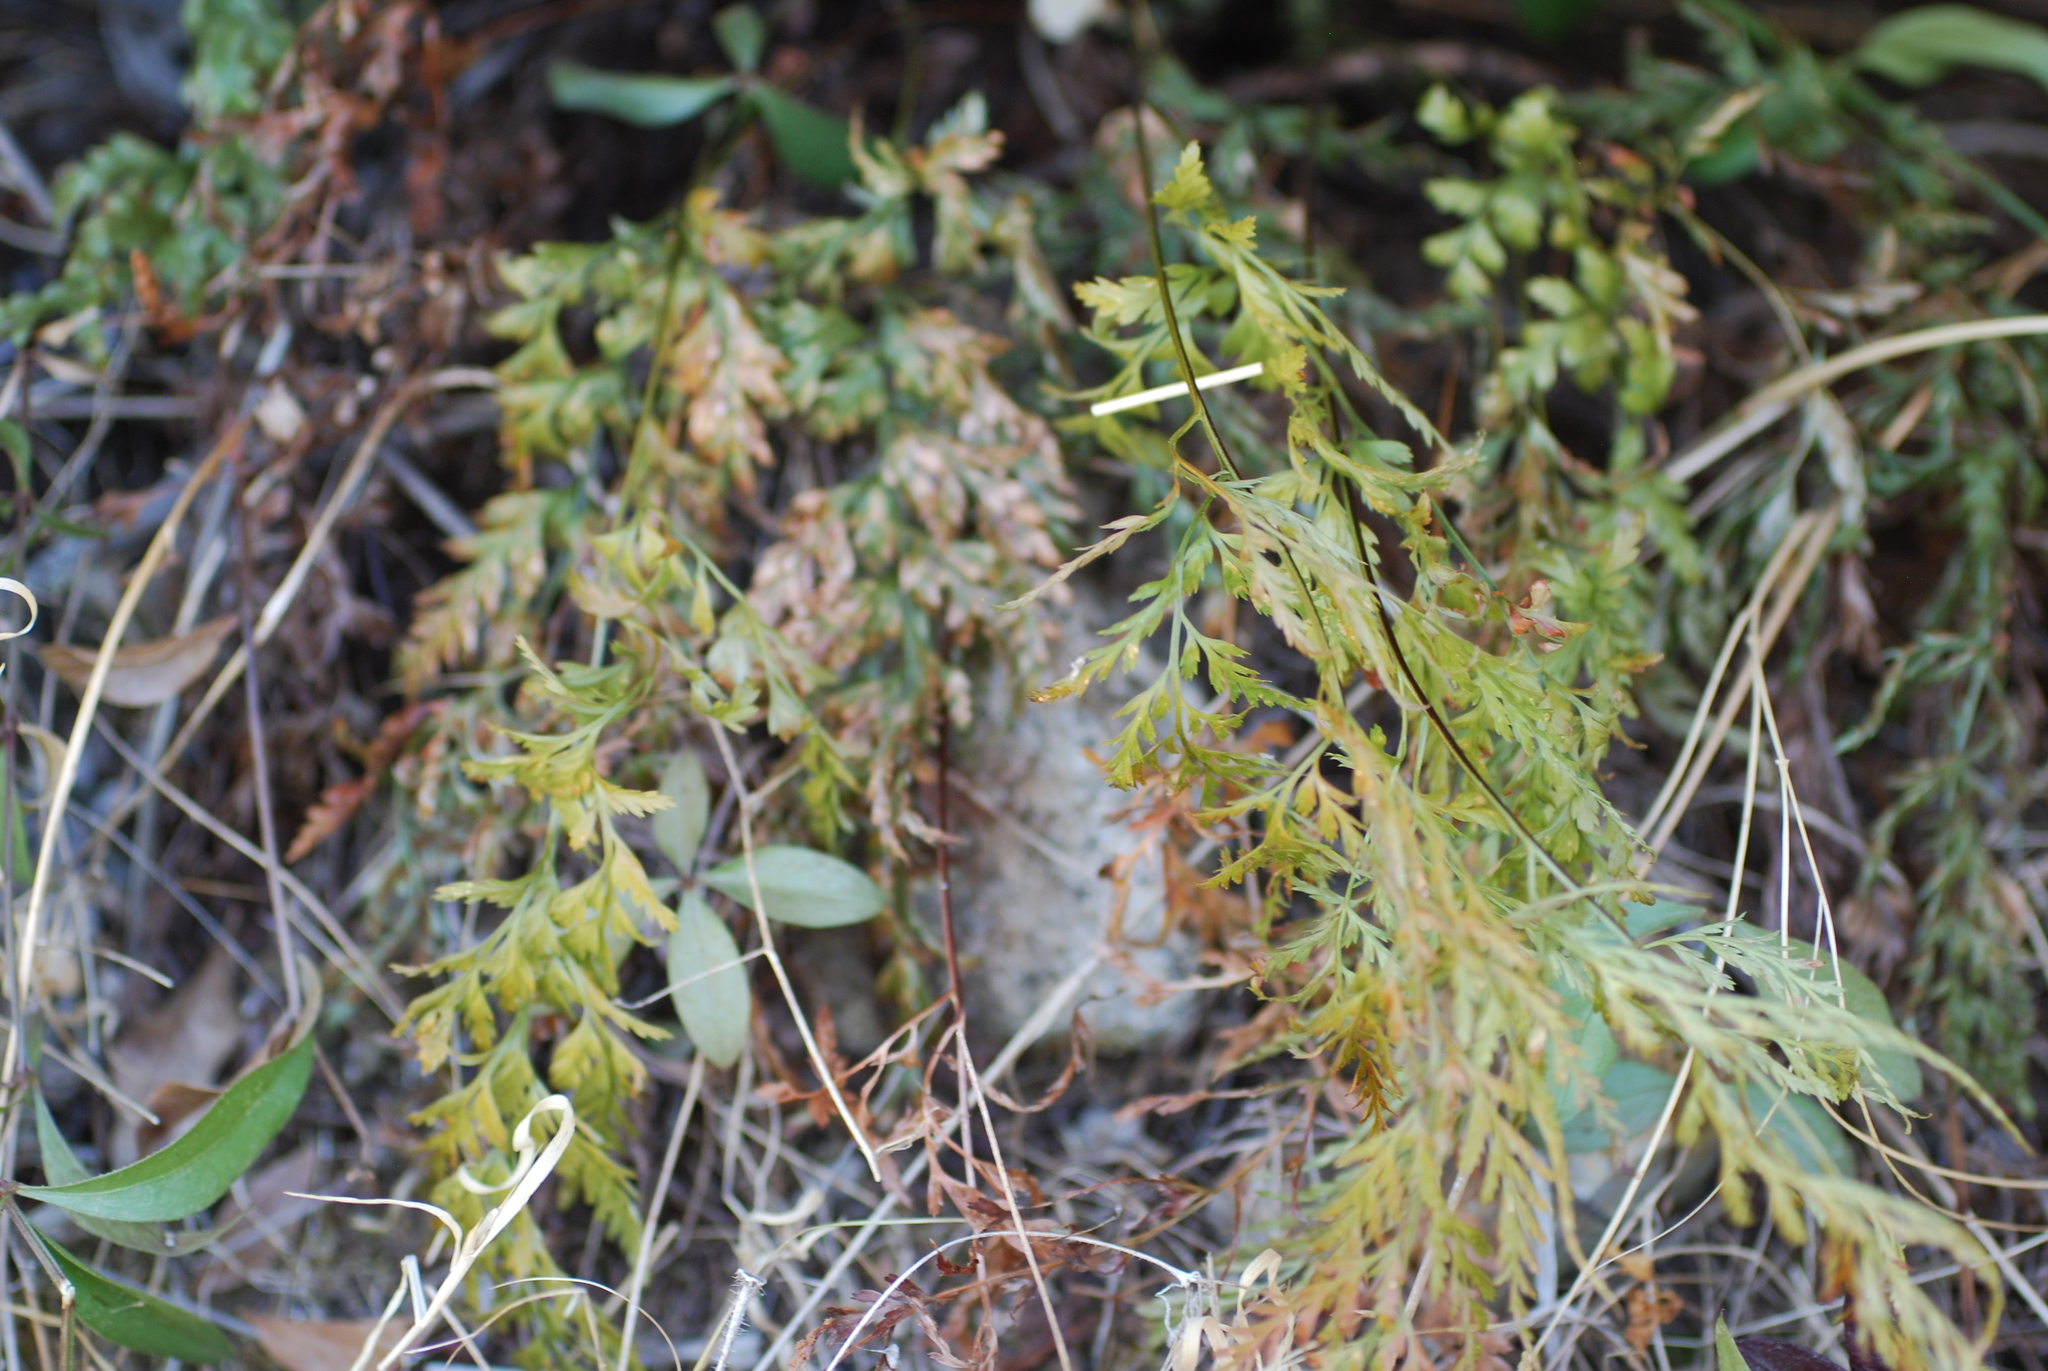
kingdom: Plantae
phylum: Tracheophyta
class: Polypodiopsida
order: Polypodiales
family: Aspleniaceae
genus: Asplenium
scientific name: Asplenium onopteris
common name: Irish spleenwort
